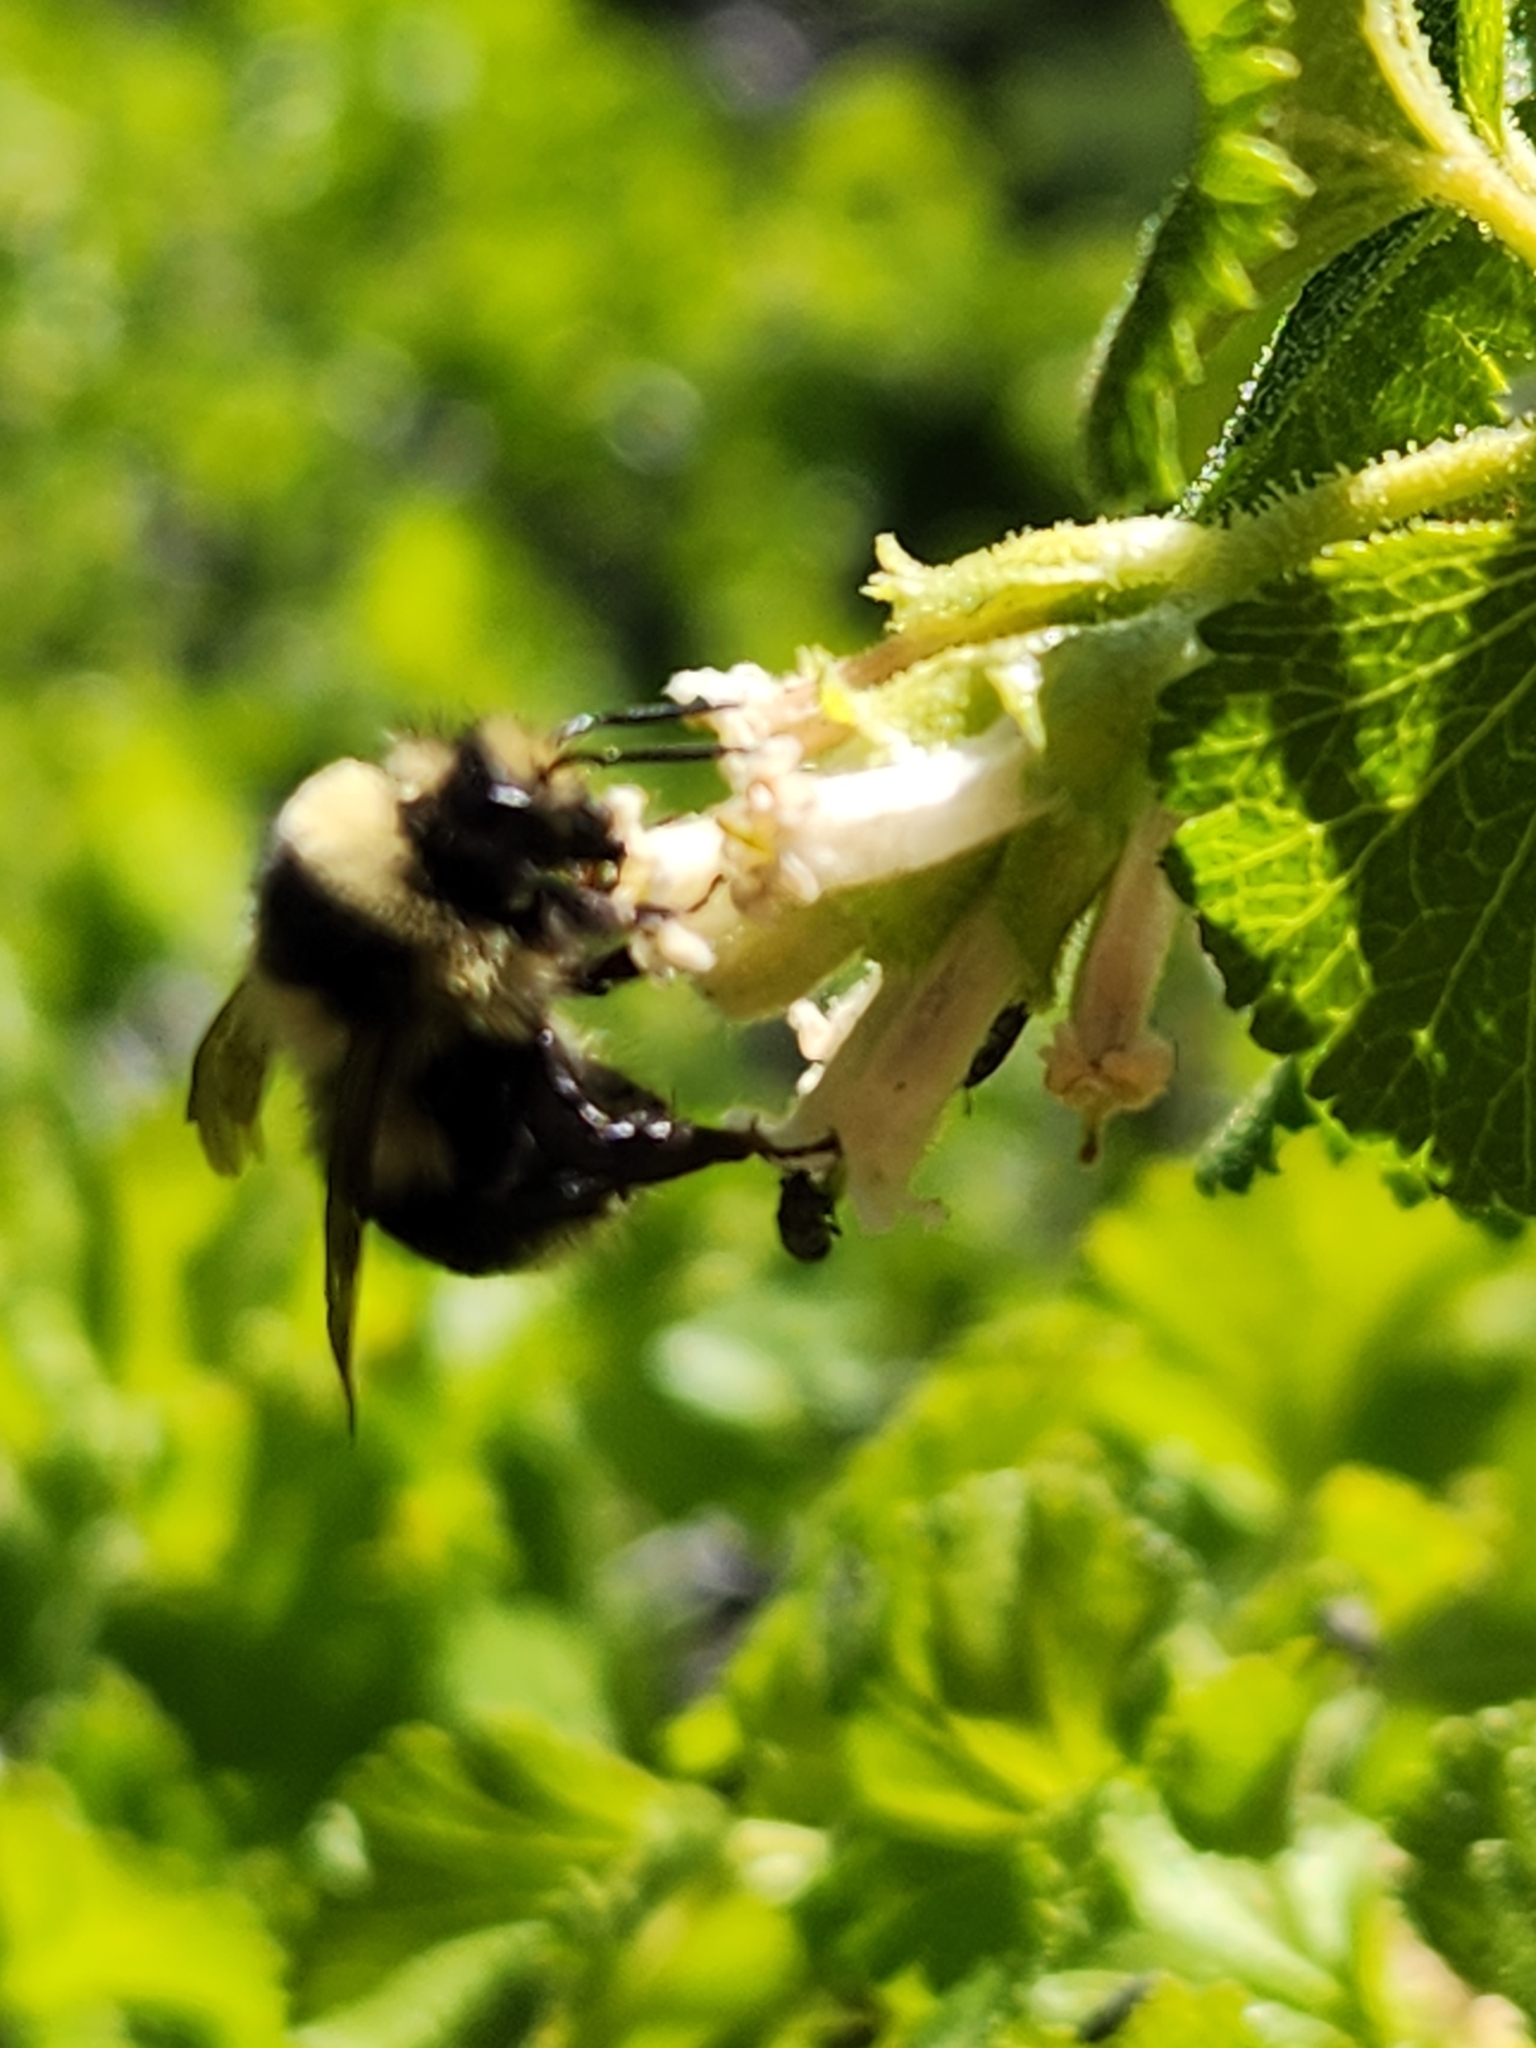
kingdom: Animalia
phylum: Arthropoda
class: Insecta
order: Hymenoptera
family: Apidae
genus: Bombus
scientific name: Bombus melanopygus
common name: Black tail bumble bee
